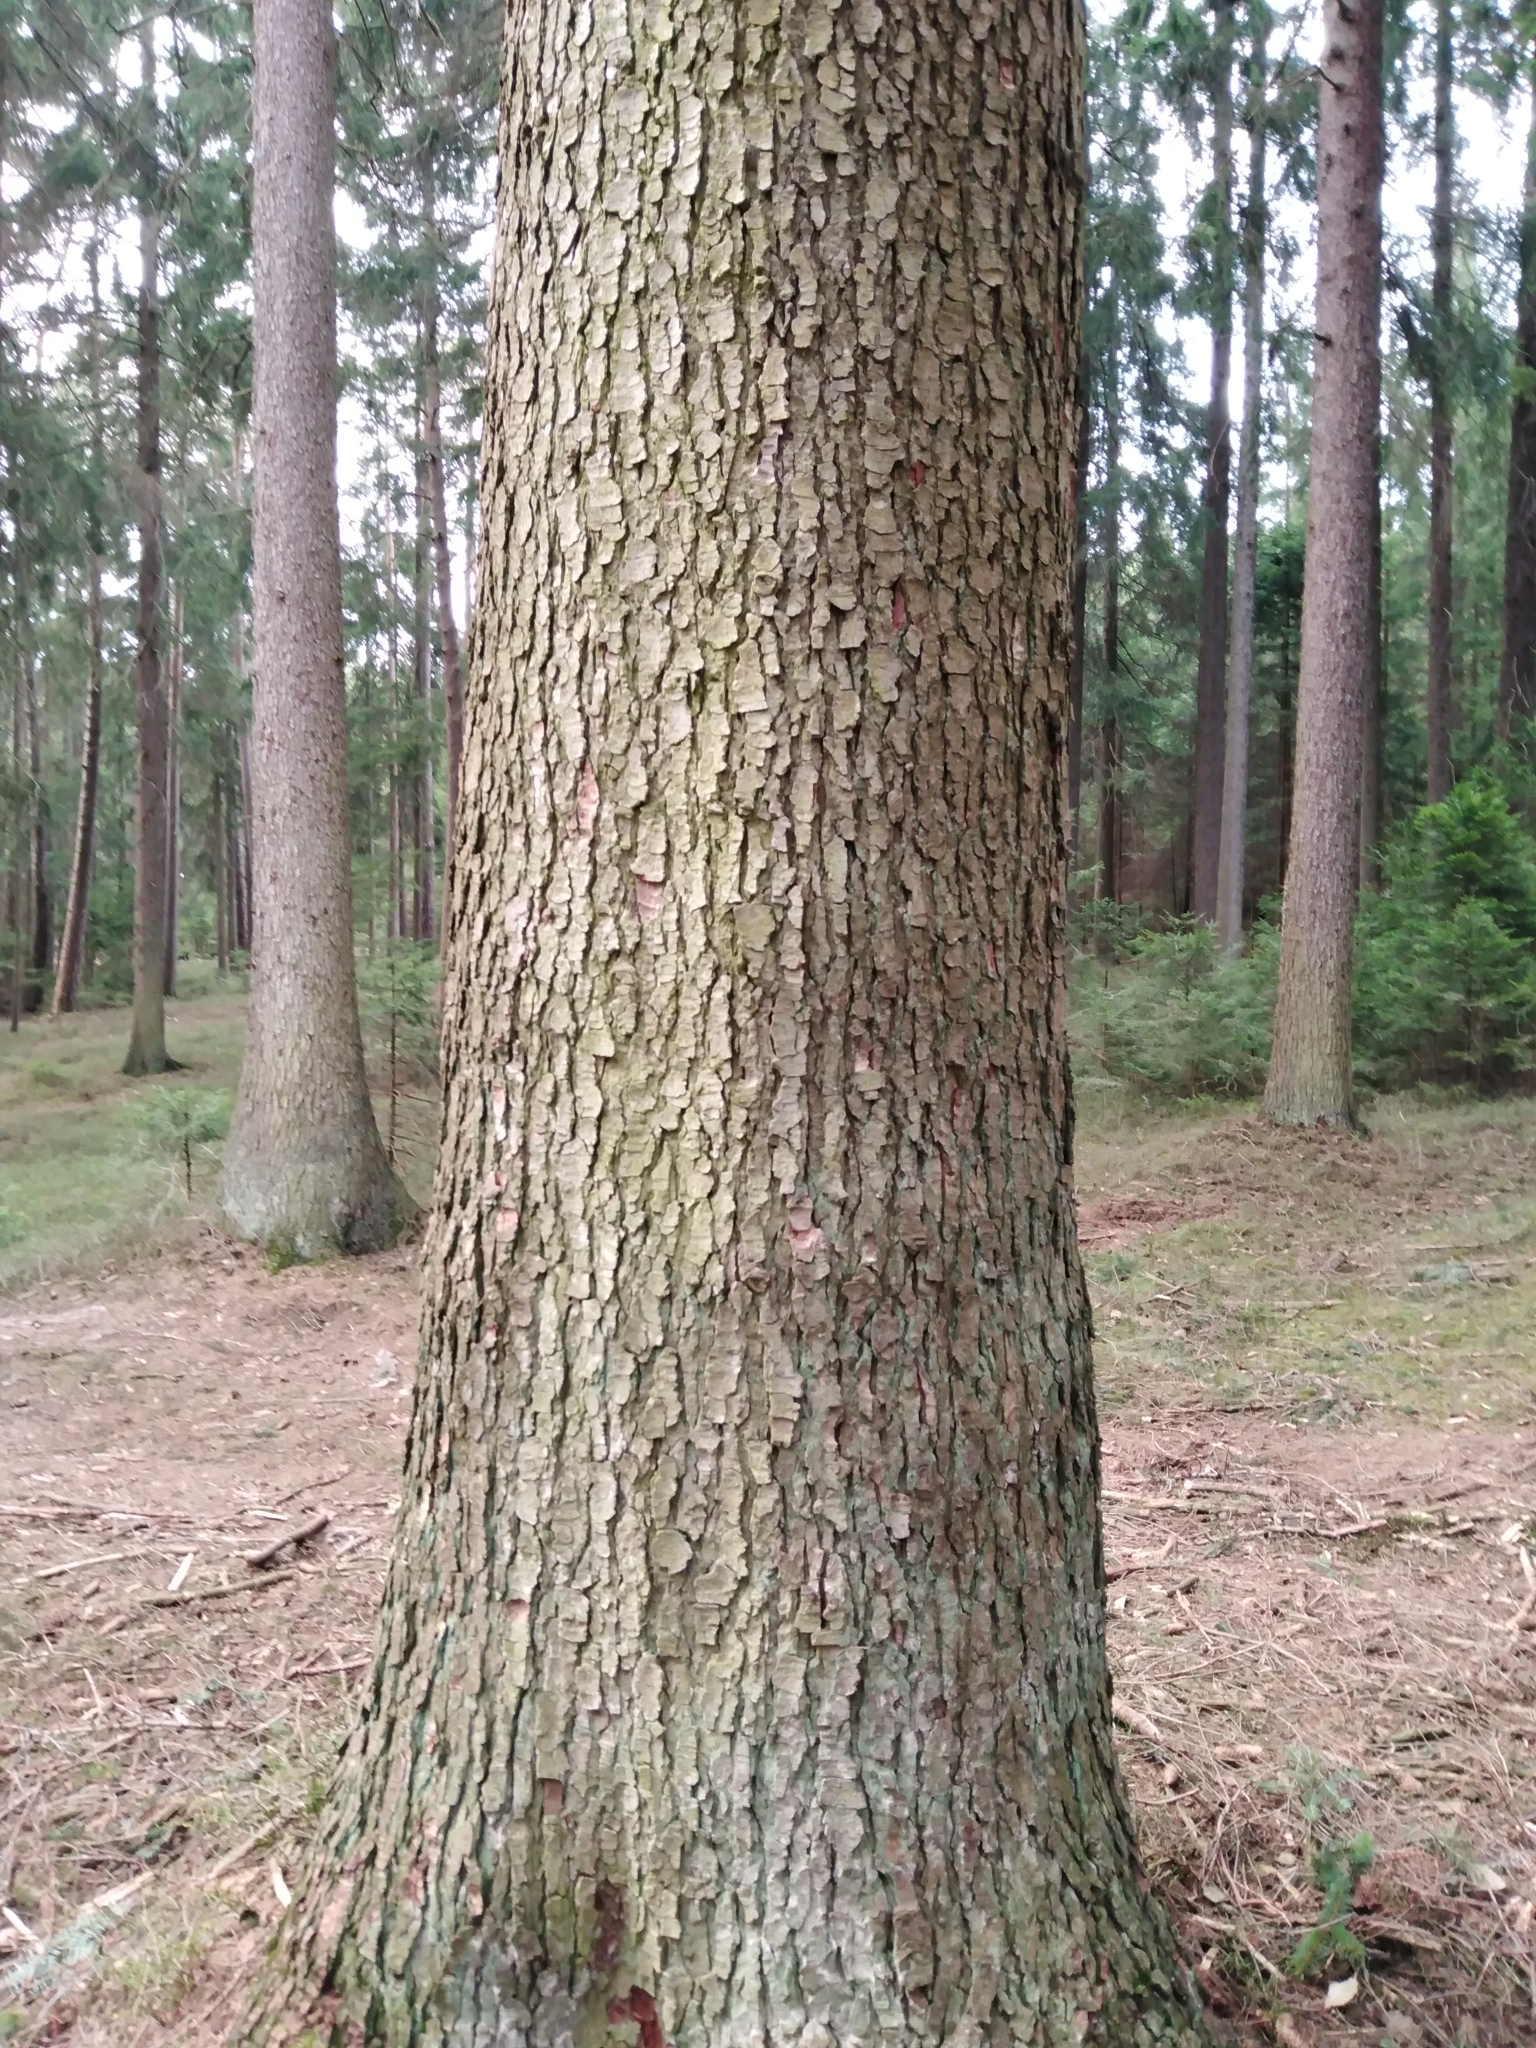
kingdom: Plantae
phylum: Tracheophyta
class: Pinopsida
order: Pinales
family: Pinaceae
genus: Abies
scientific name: Abies alba
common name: Silver fir
